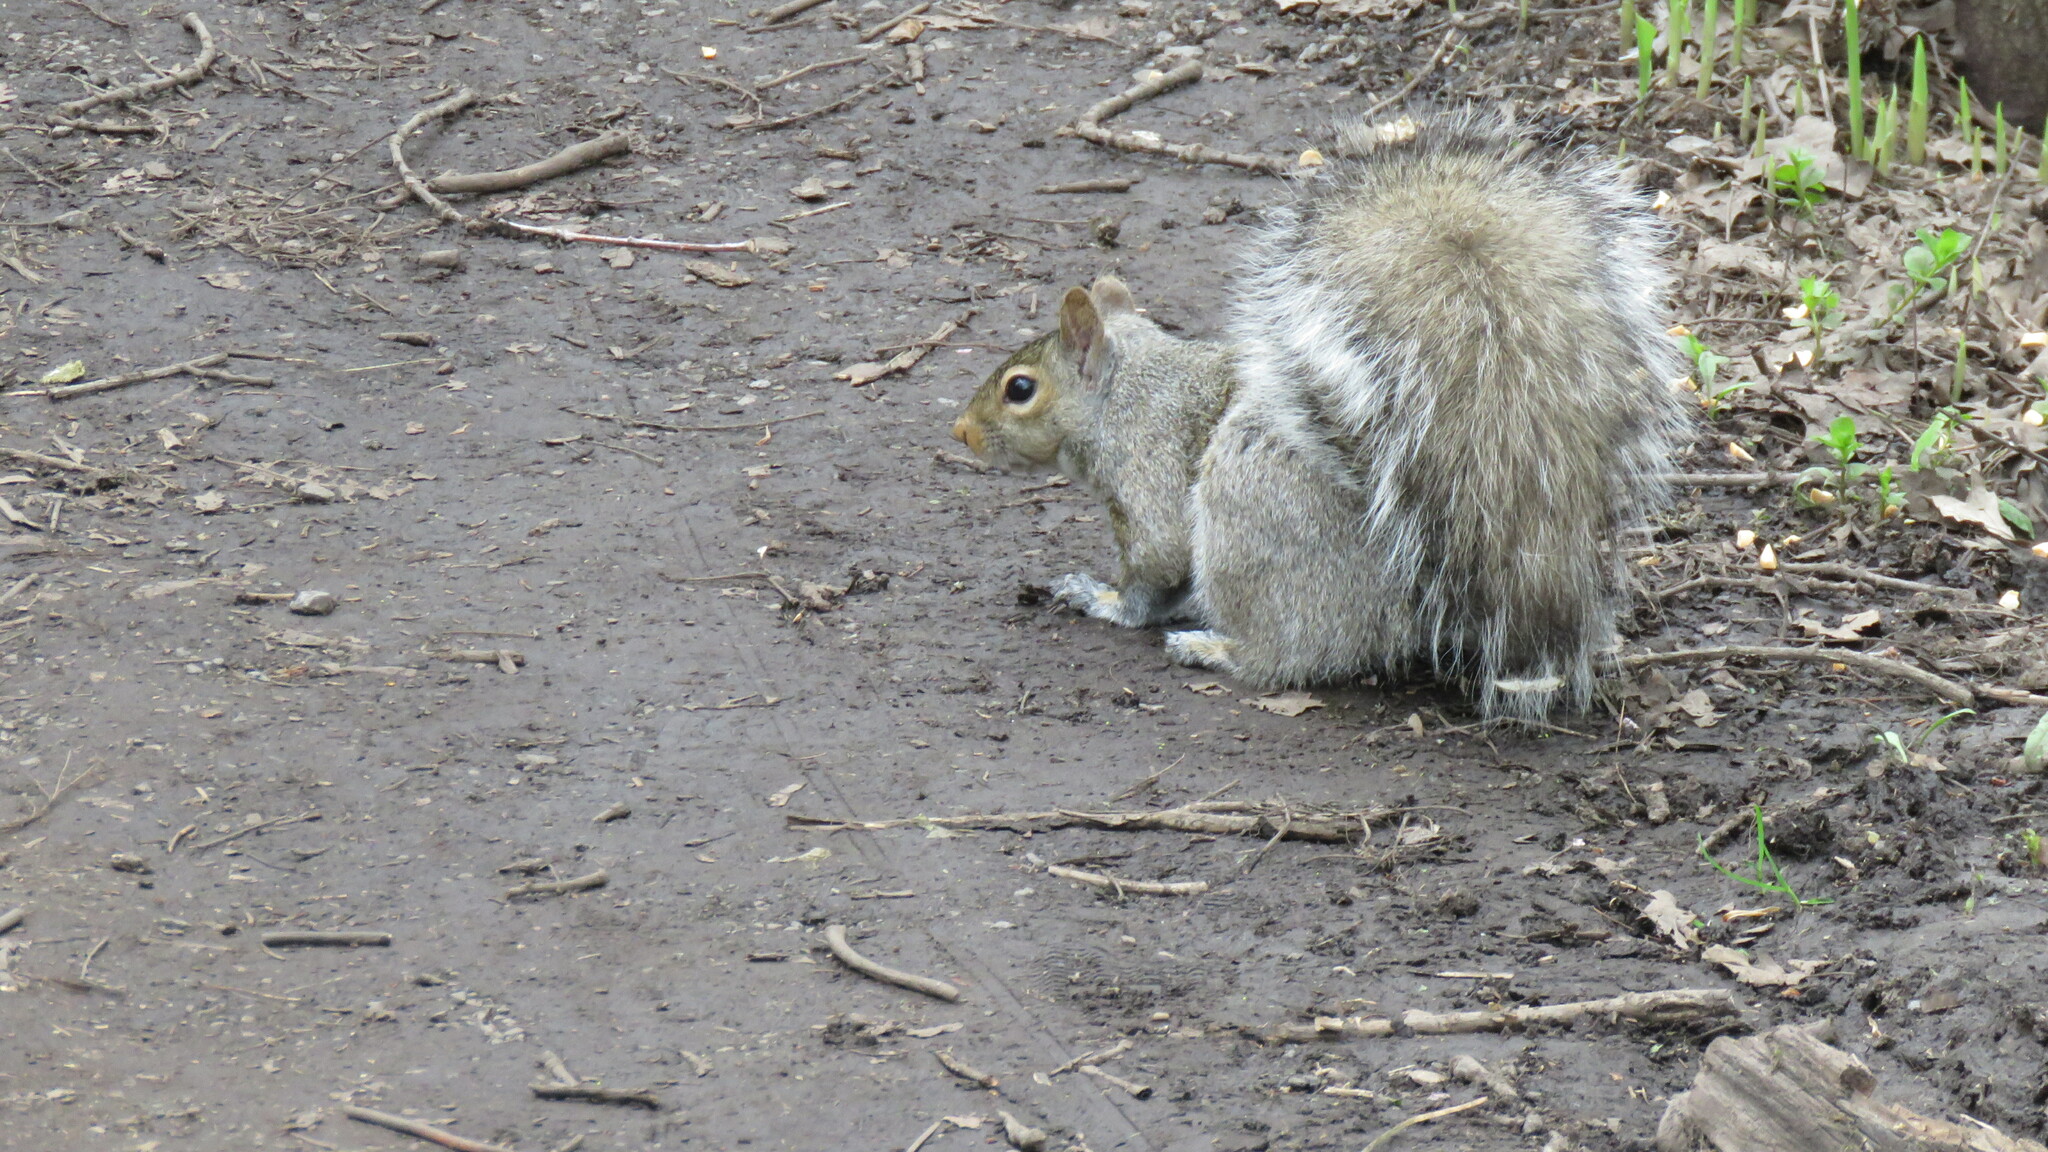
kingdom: Animalia
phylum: Chordata
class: Mammalia
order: Rodentia
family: Sciuridae
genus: Sciurus
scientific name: Sciurus carolinensis
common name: Eastern gray squirrel
